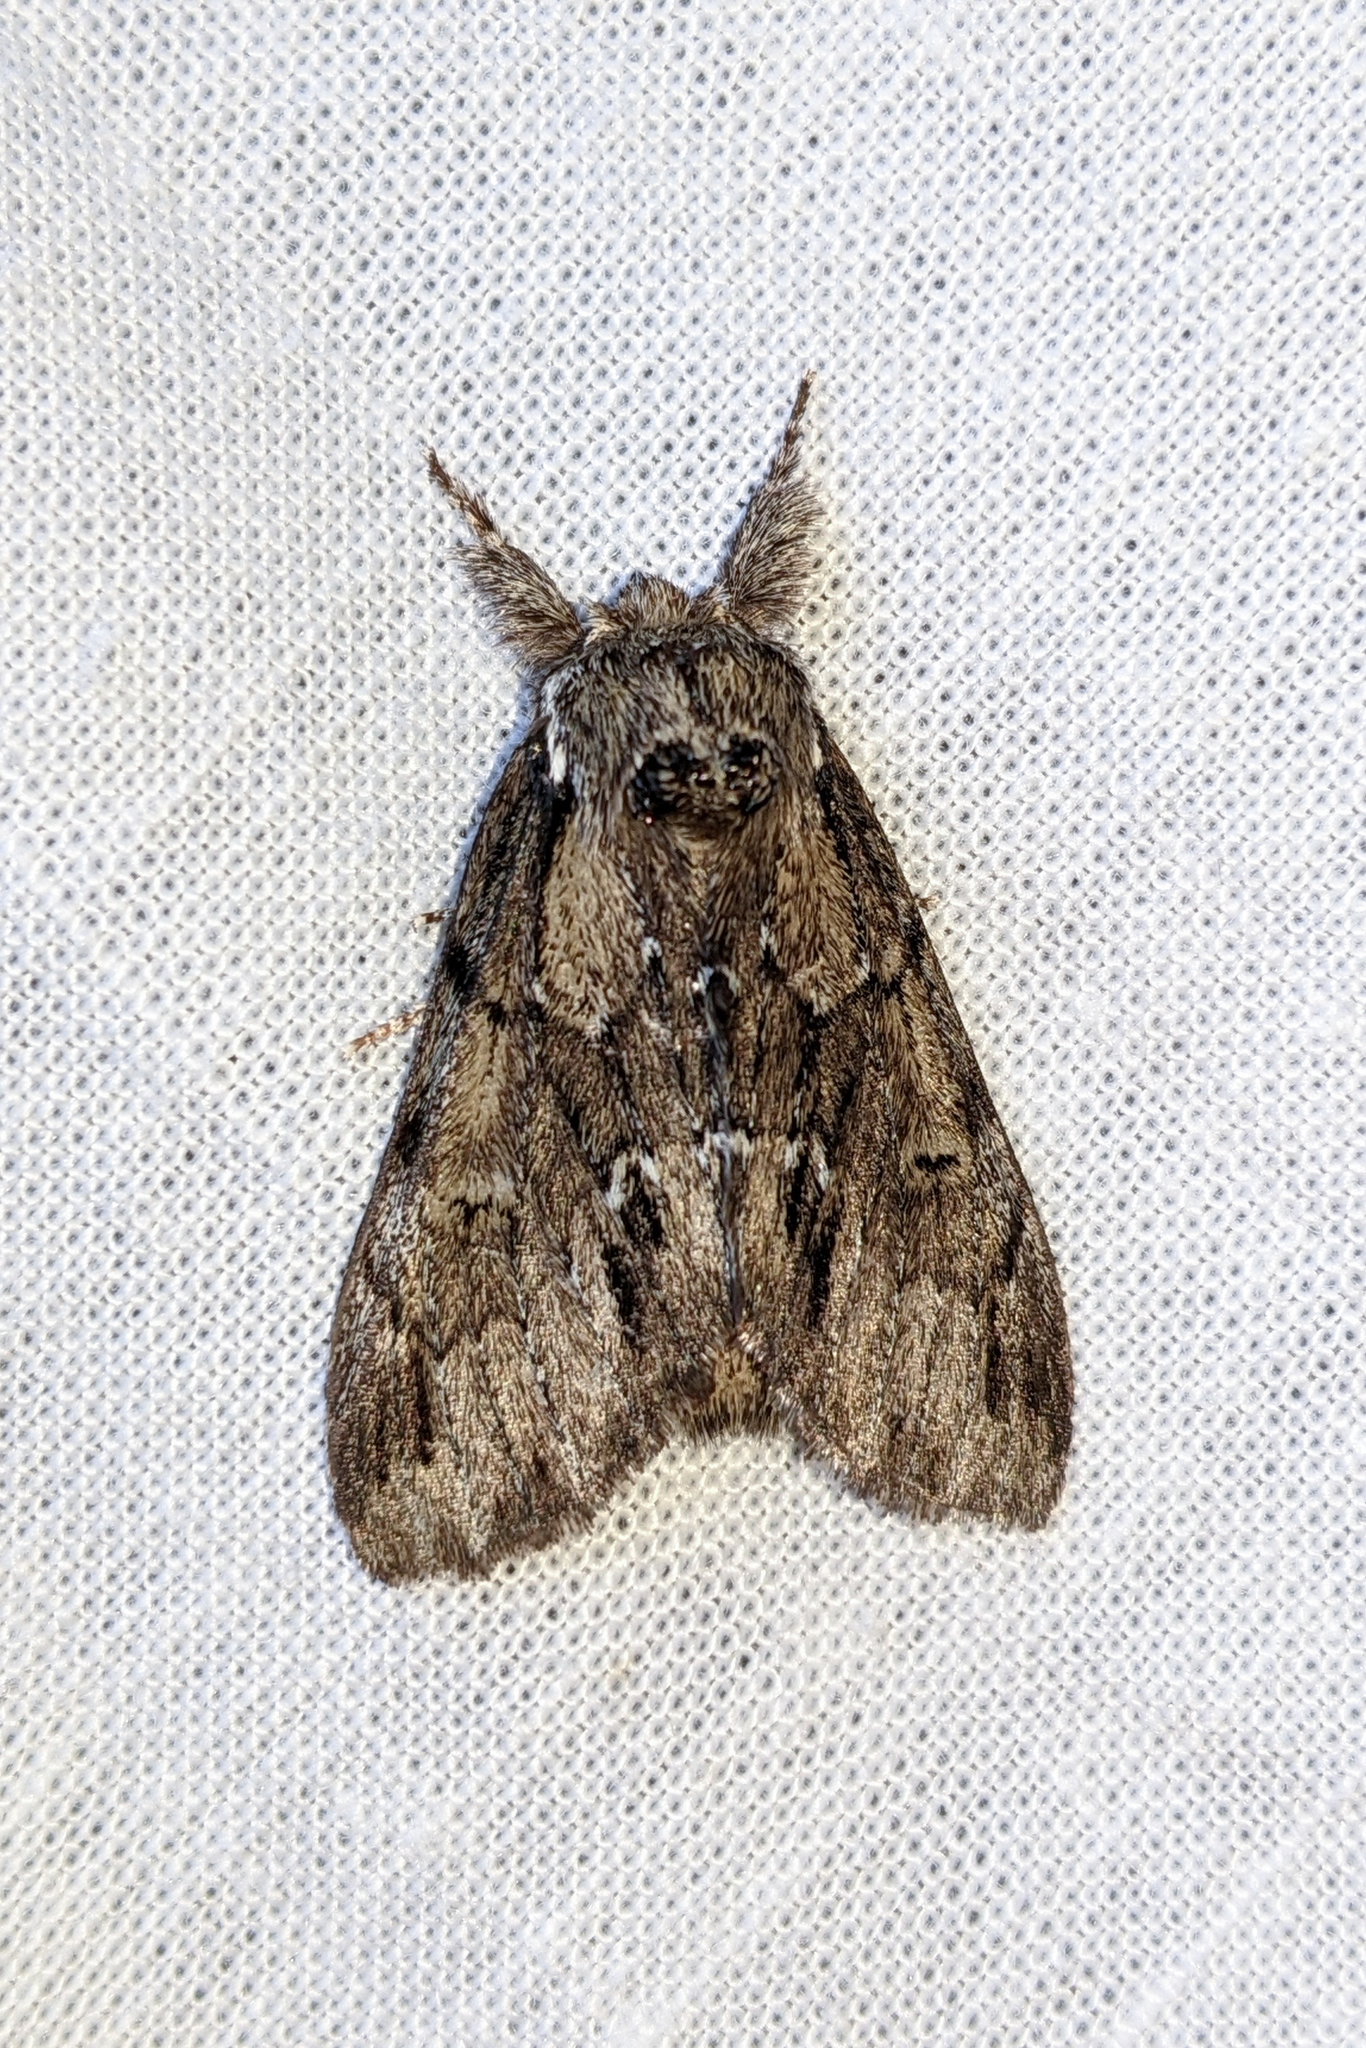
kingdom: Animalia
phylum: Arthropoda
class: Insecta
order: Lepidoptera
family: Notodontidae
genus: Paraeschra
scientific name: Paraeschra georgica
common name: Georgian prominent
